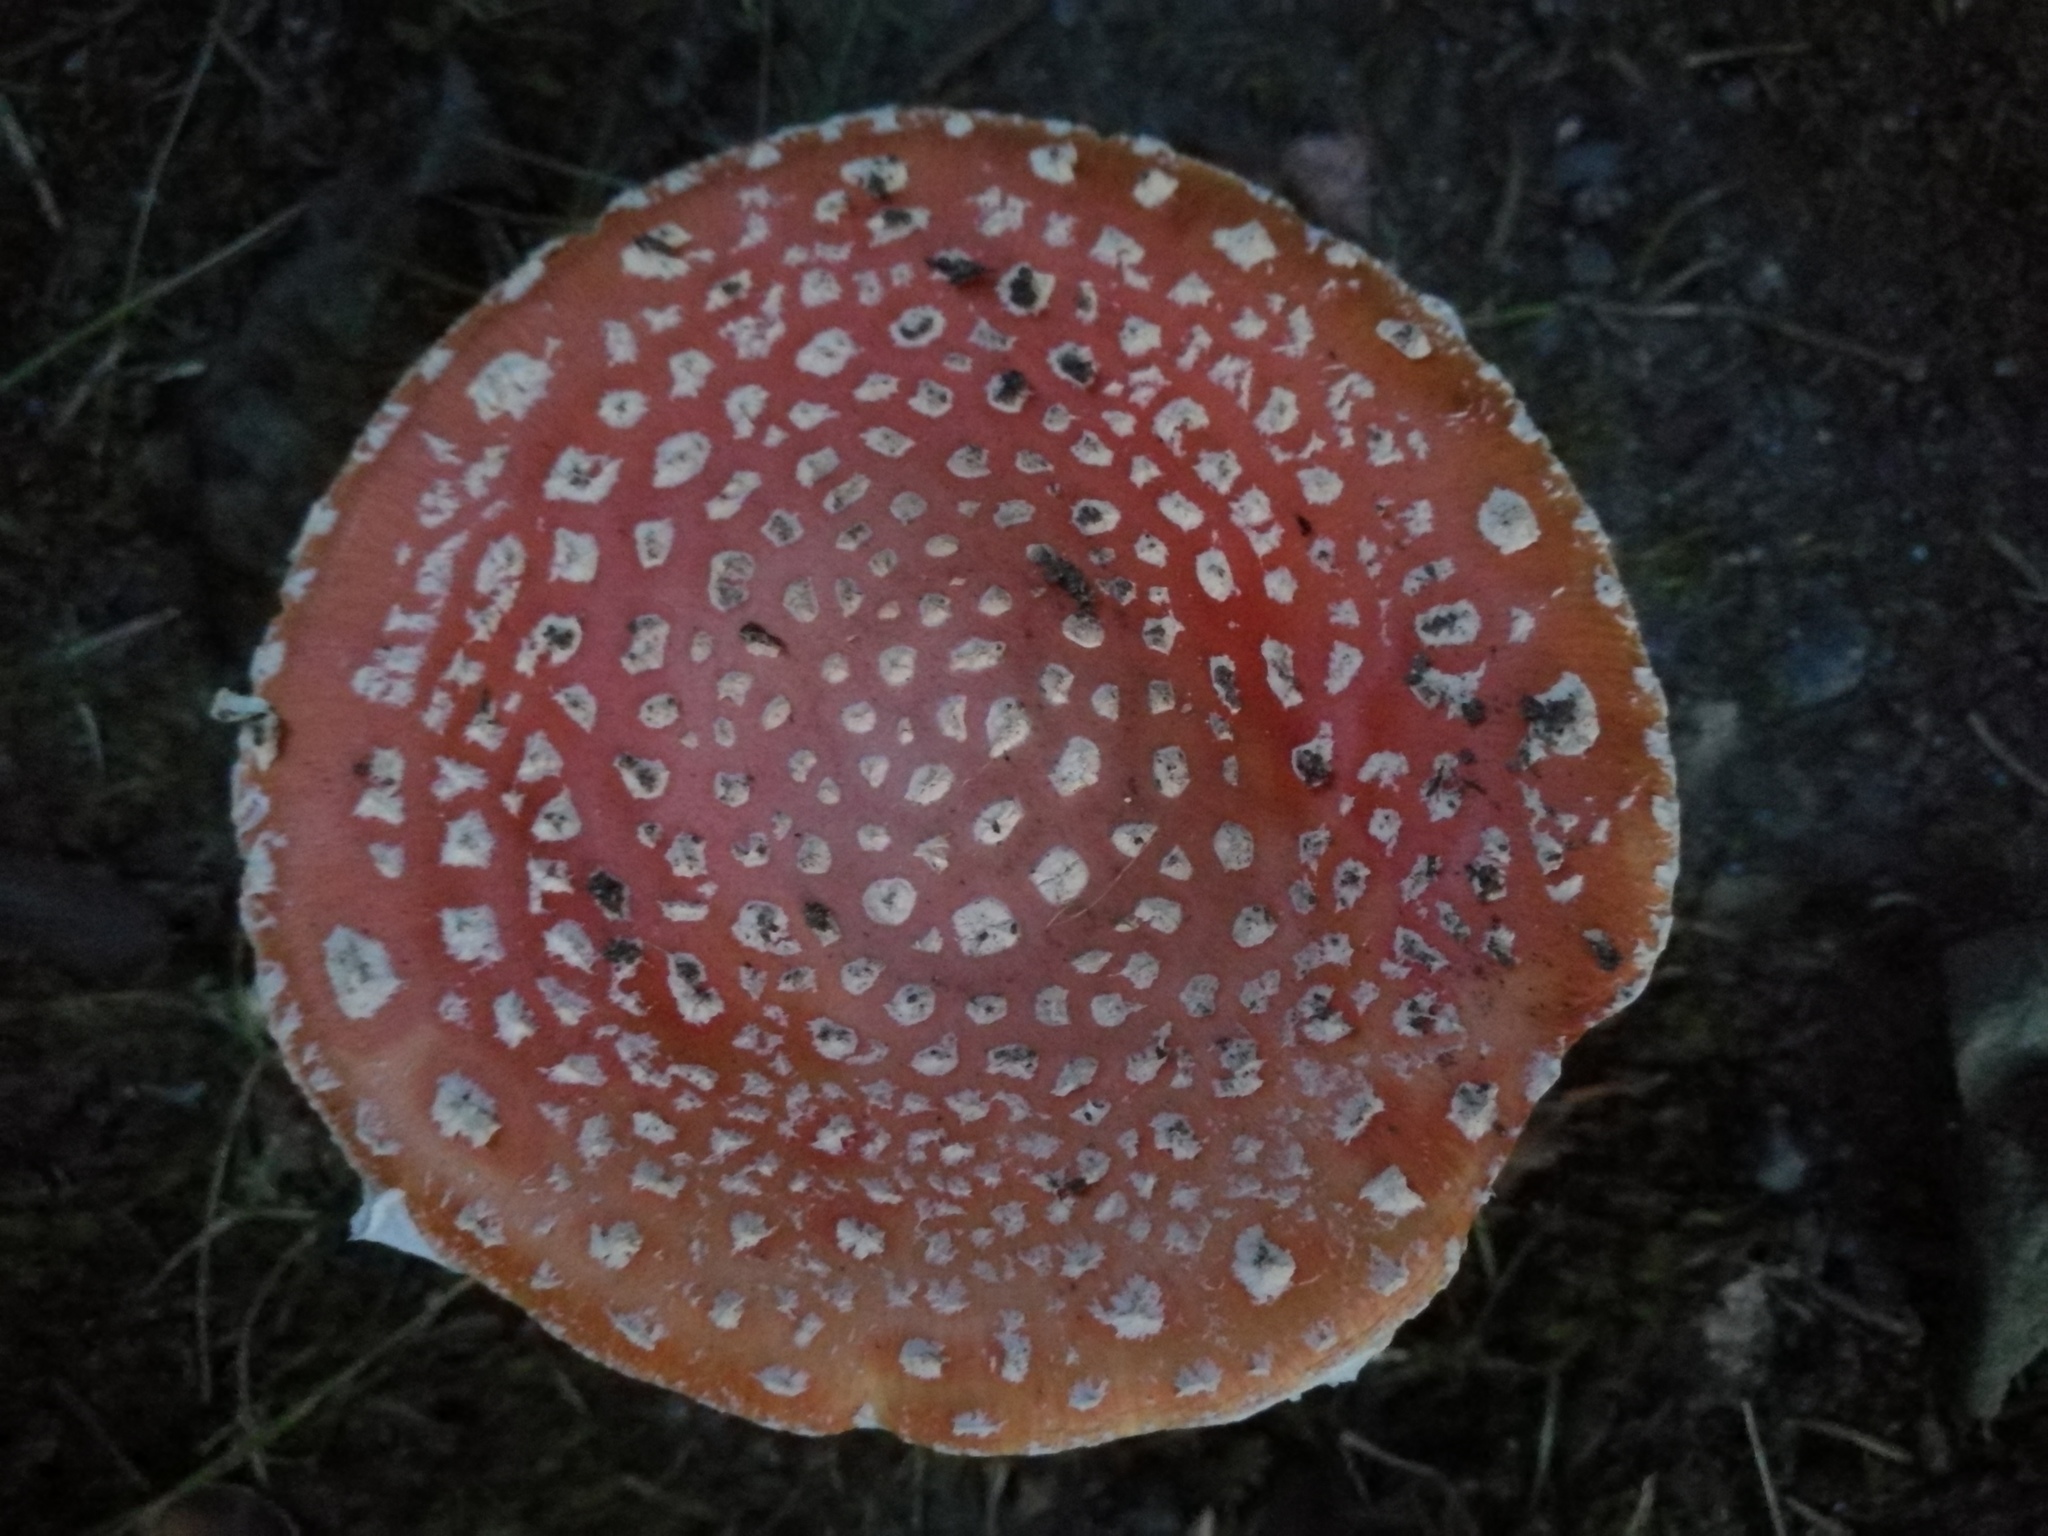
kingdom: Fungi
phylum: Basidiomycota
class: Agaricomycetes
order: Agaricales
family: Amanitaceae
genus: Amanita
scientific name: Amanita muscaria
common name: Fly agaric
